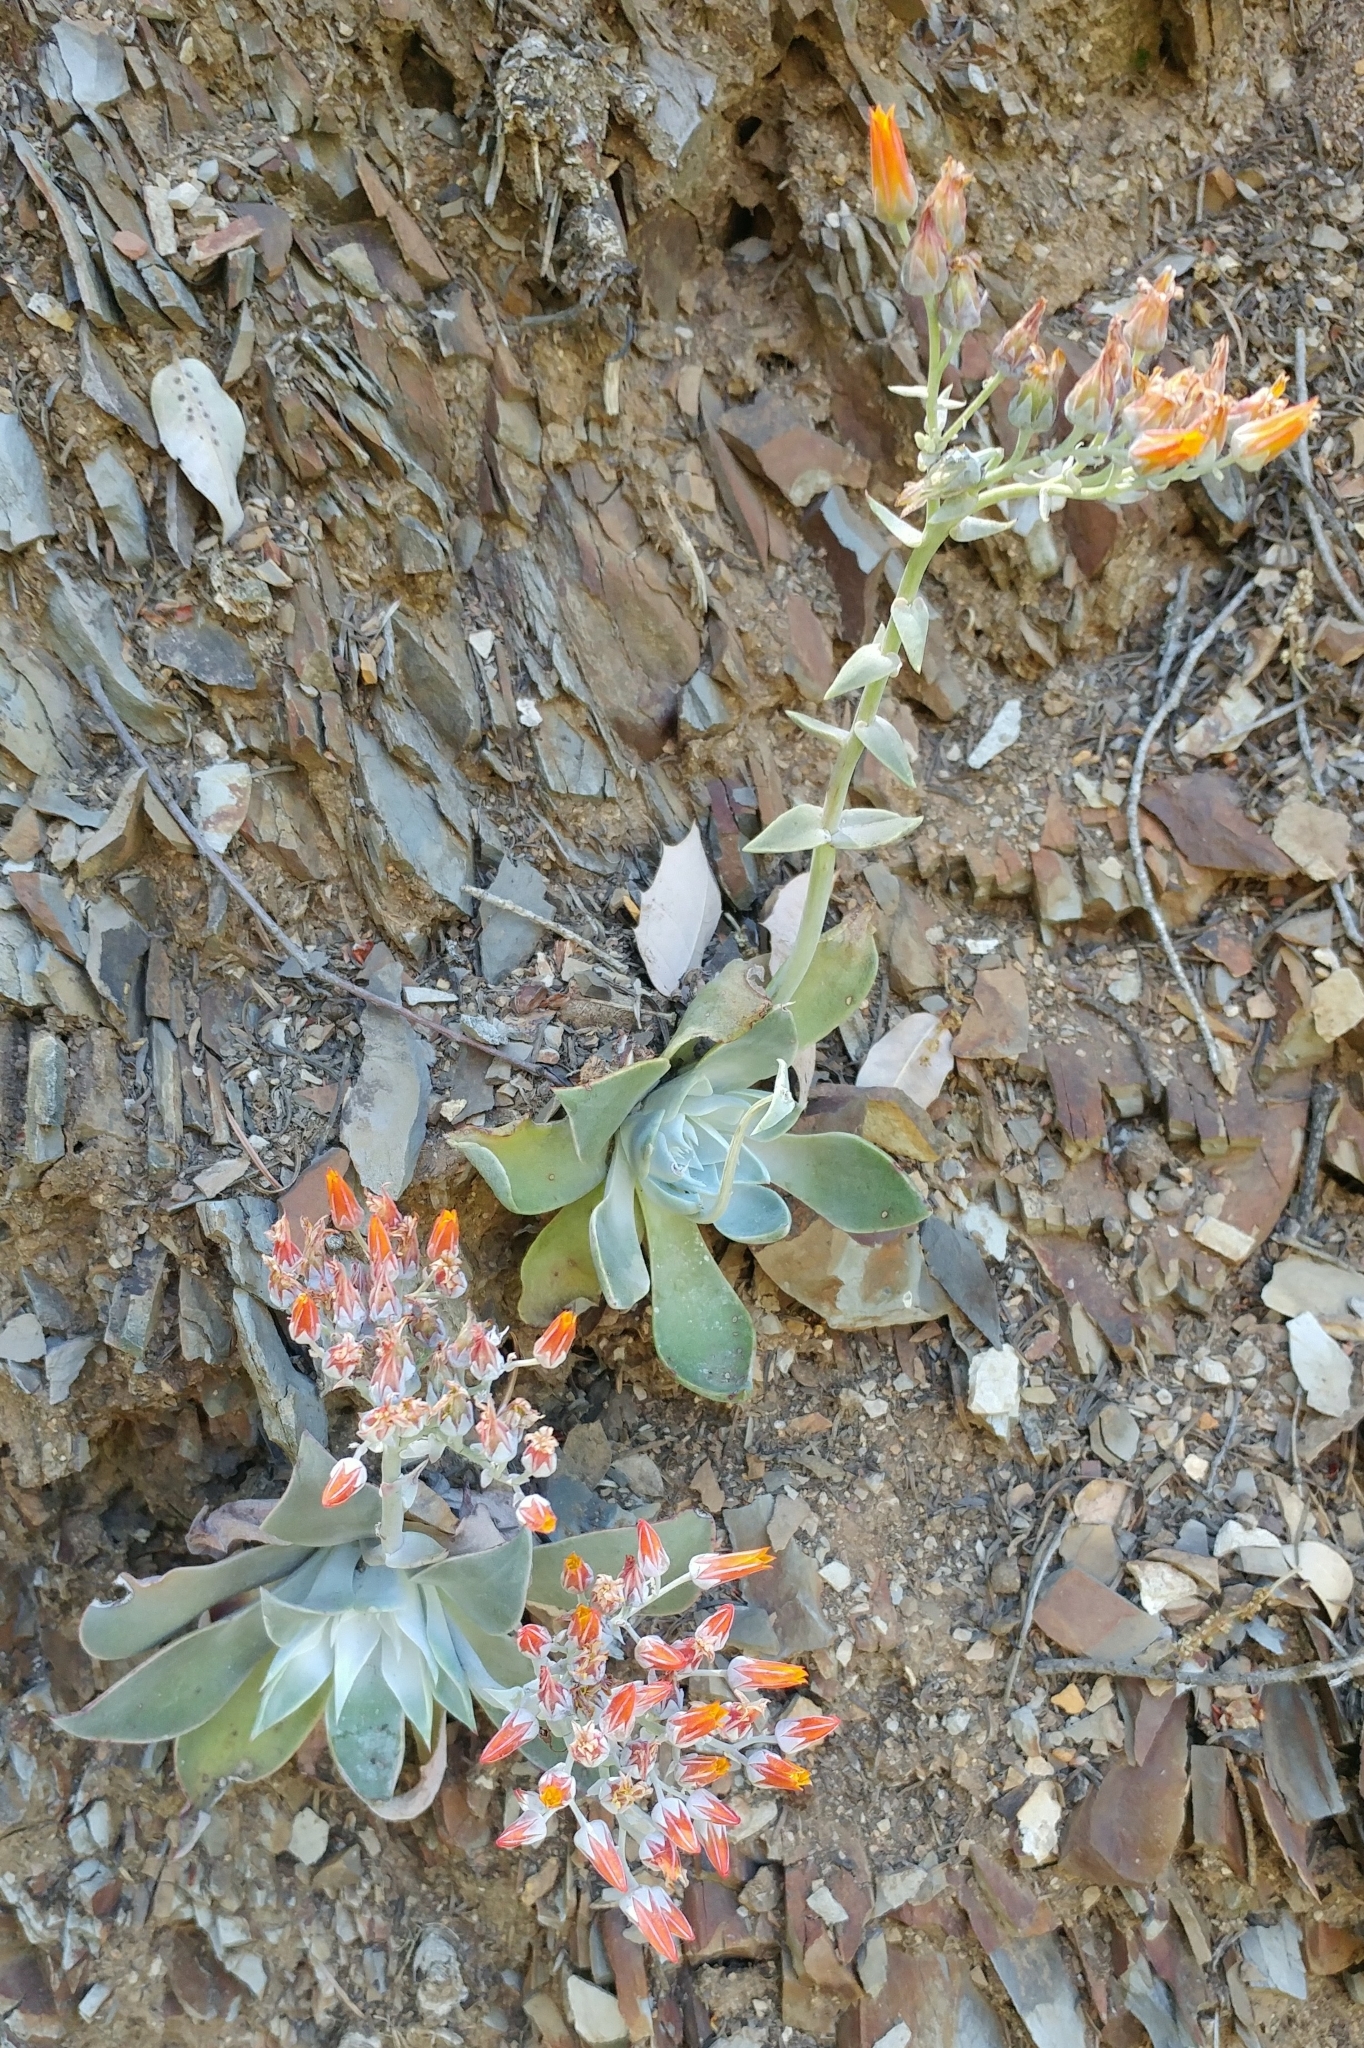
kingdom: Plantae
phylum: Tracheophyta
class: Magnoliopsida
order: Saxifragales
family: Crassulaceae
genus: Dudleya
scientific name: Dudleya cymosa
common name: Canyon dudleya
